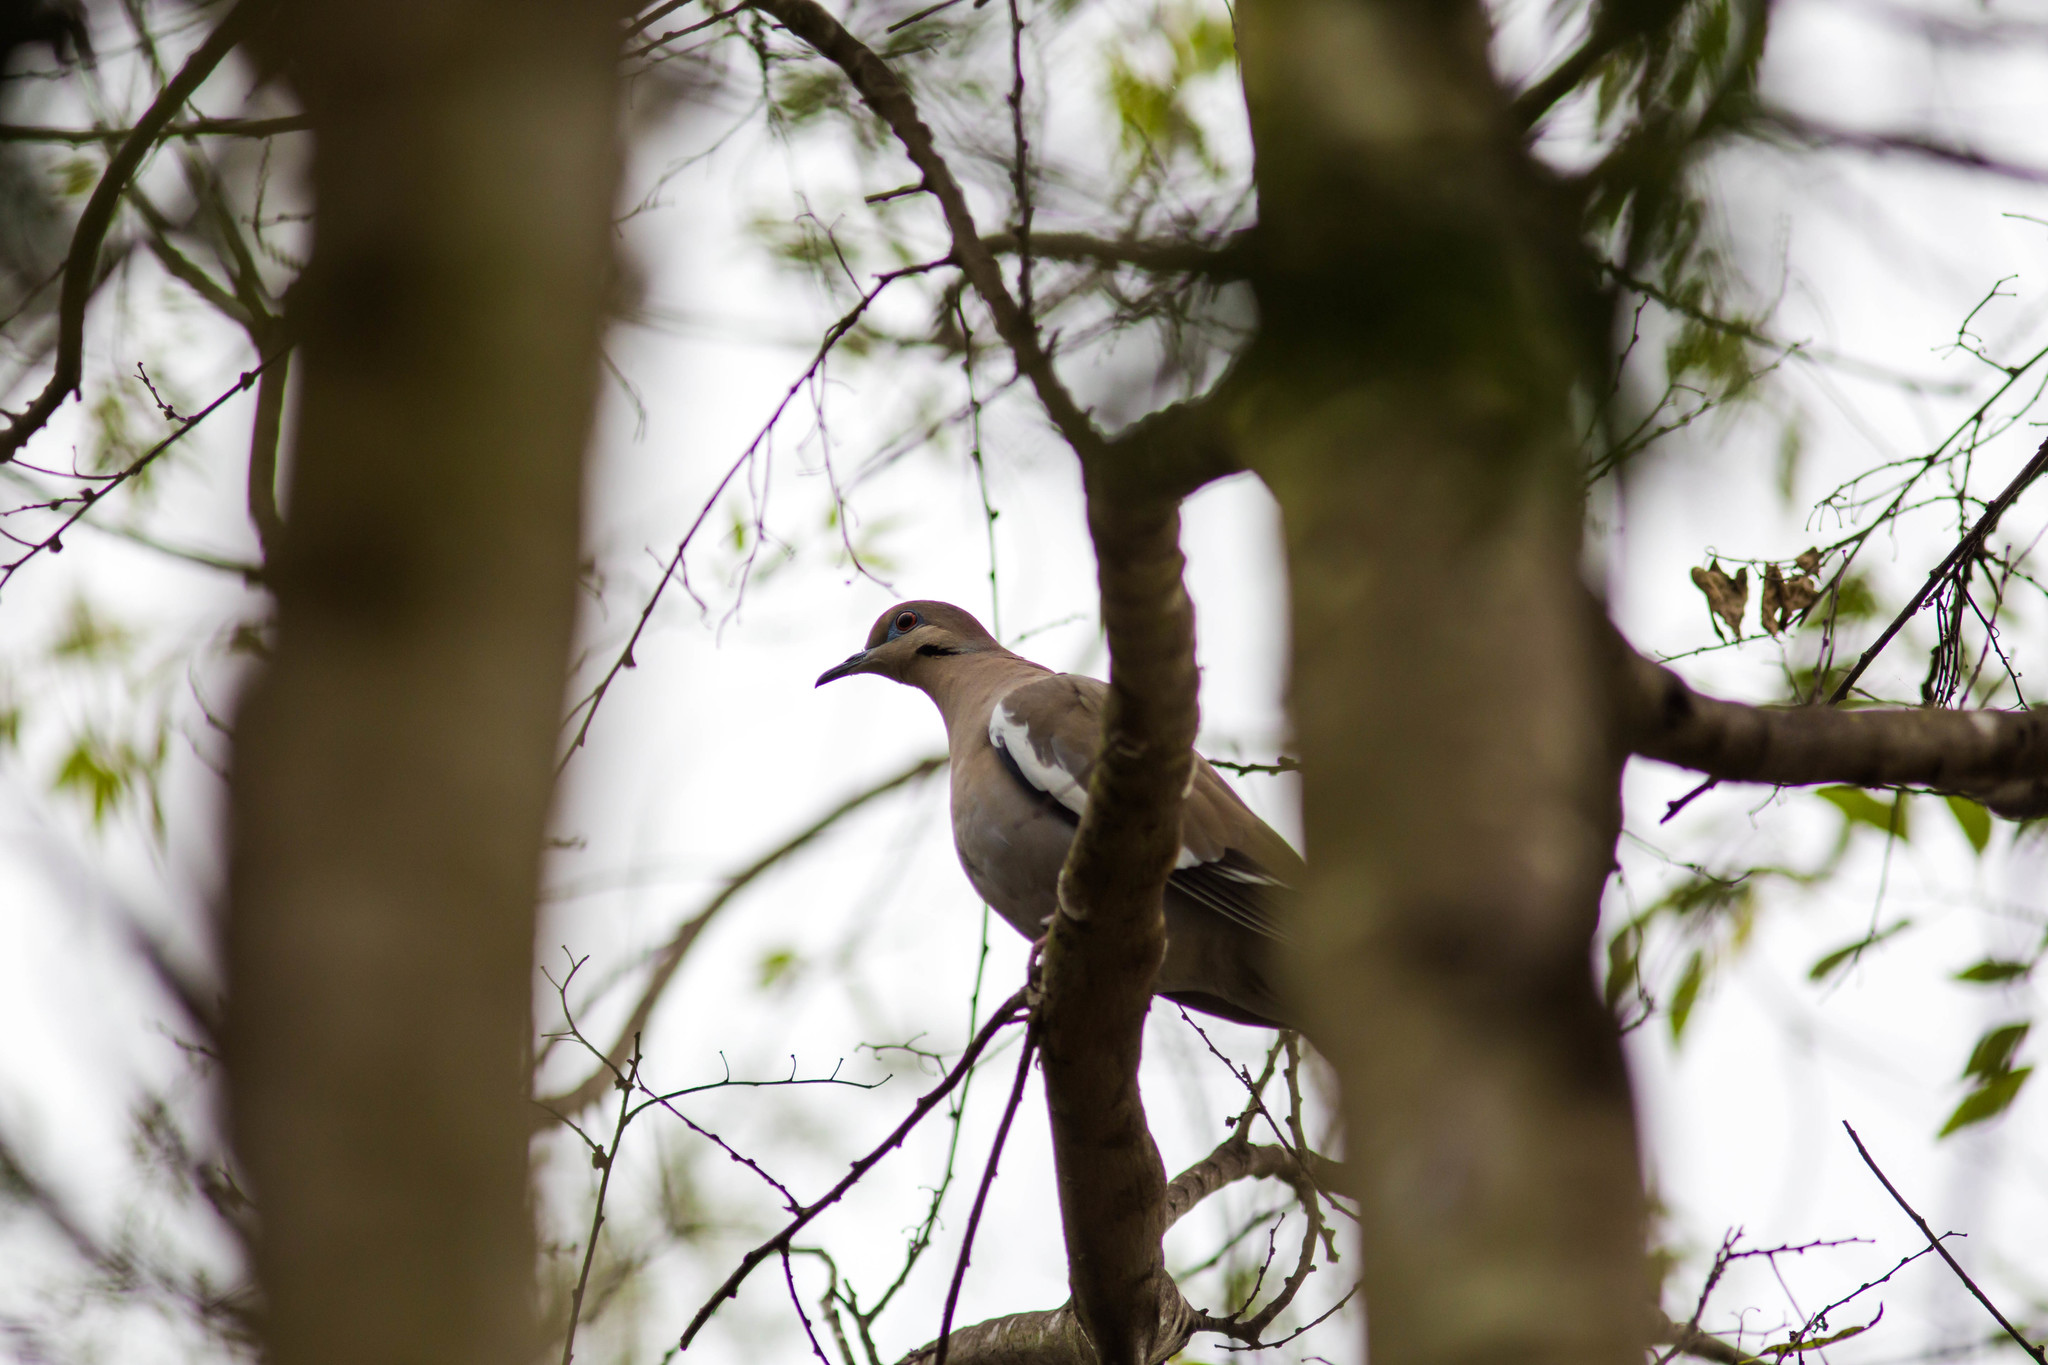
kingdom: Animalia
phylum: Chordata
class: Aves
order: Columbiformes
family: Columbidae
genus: Zenaida
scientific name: Zenaida asiatica
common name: White-winged dove
